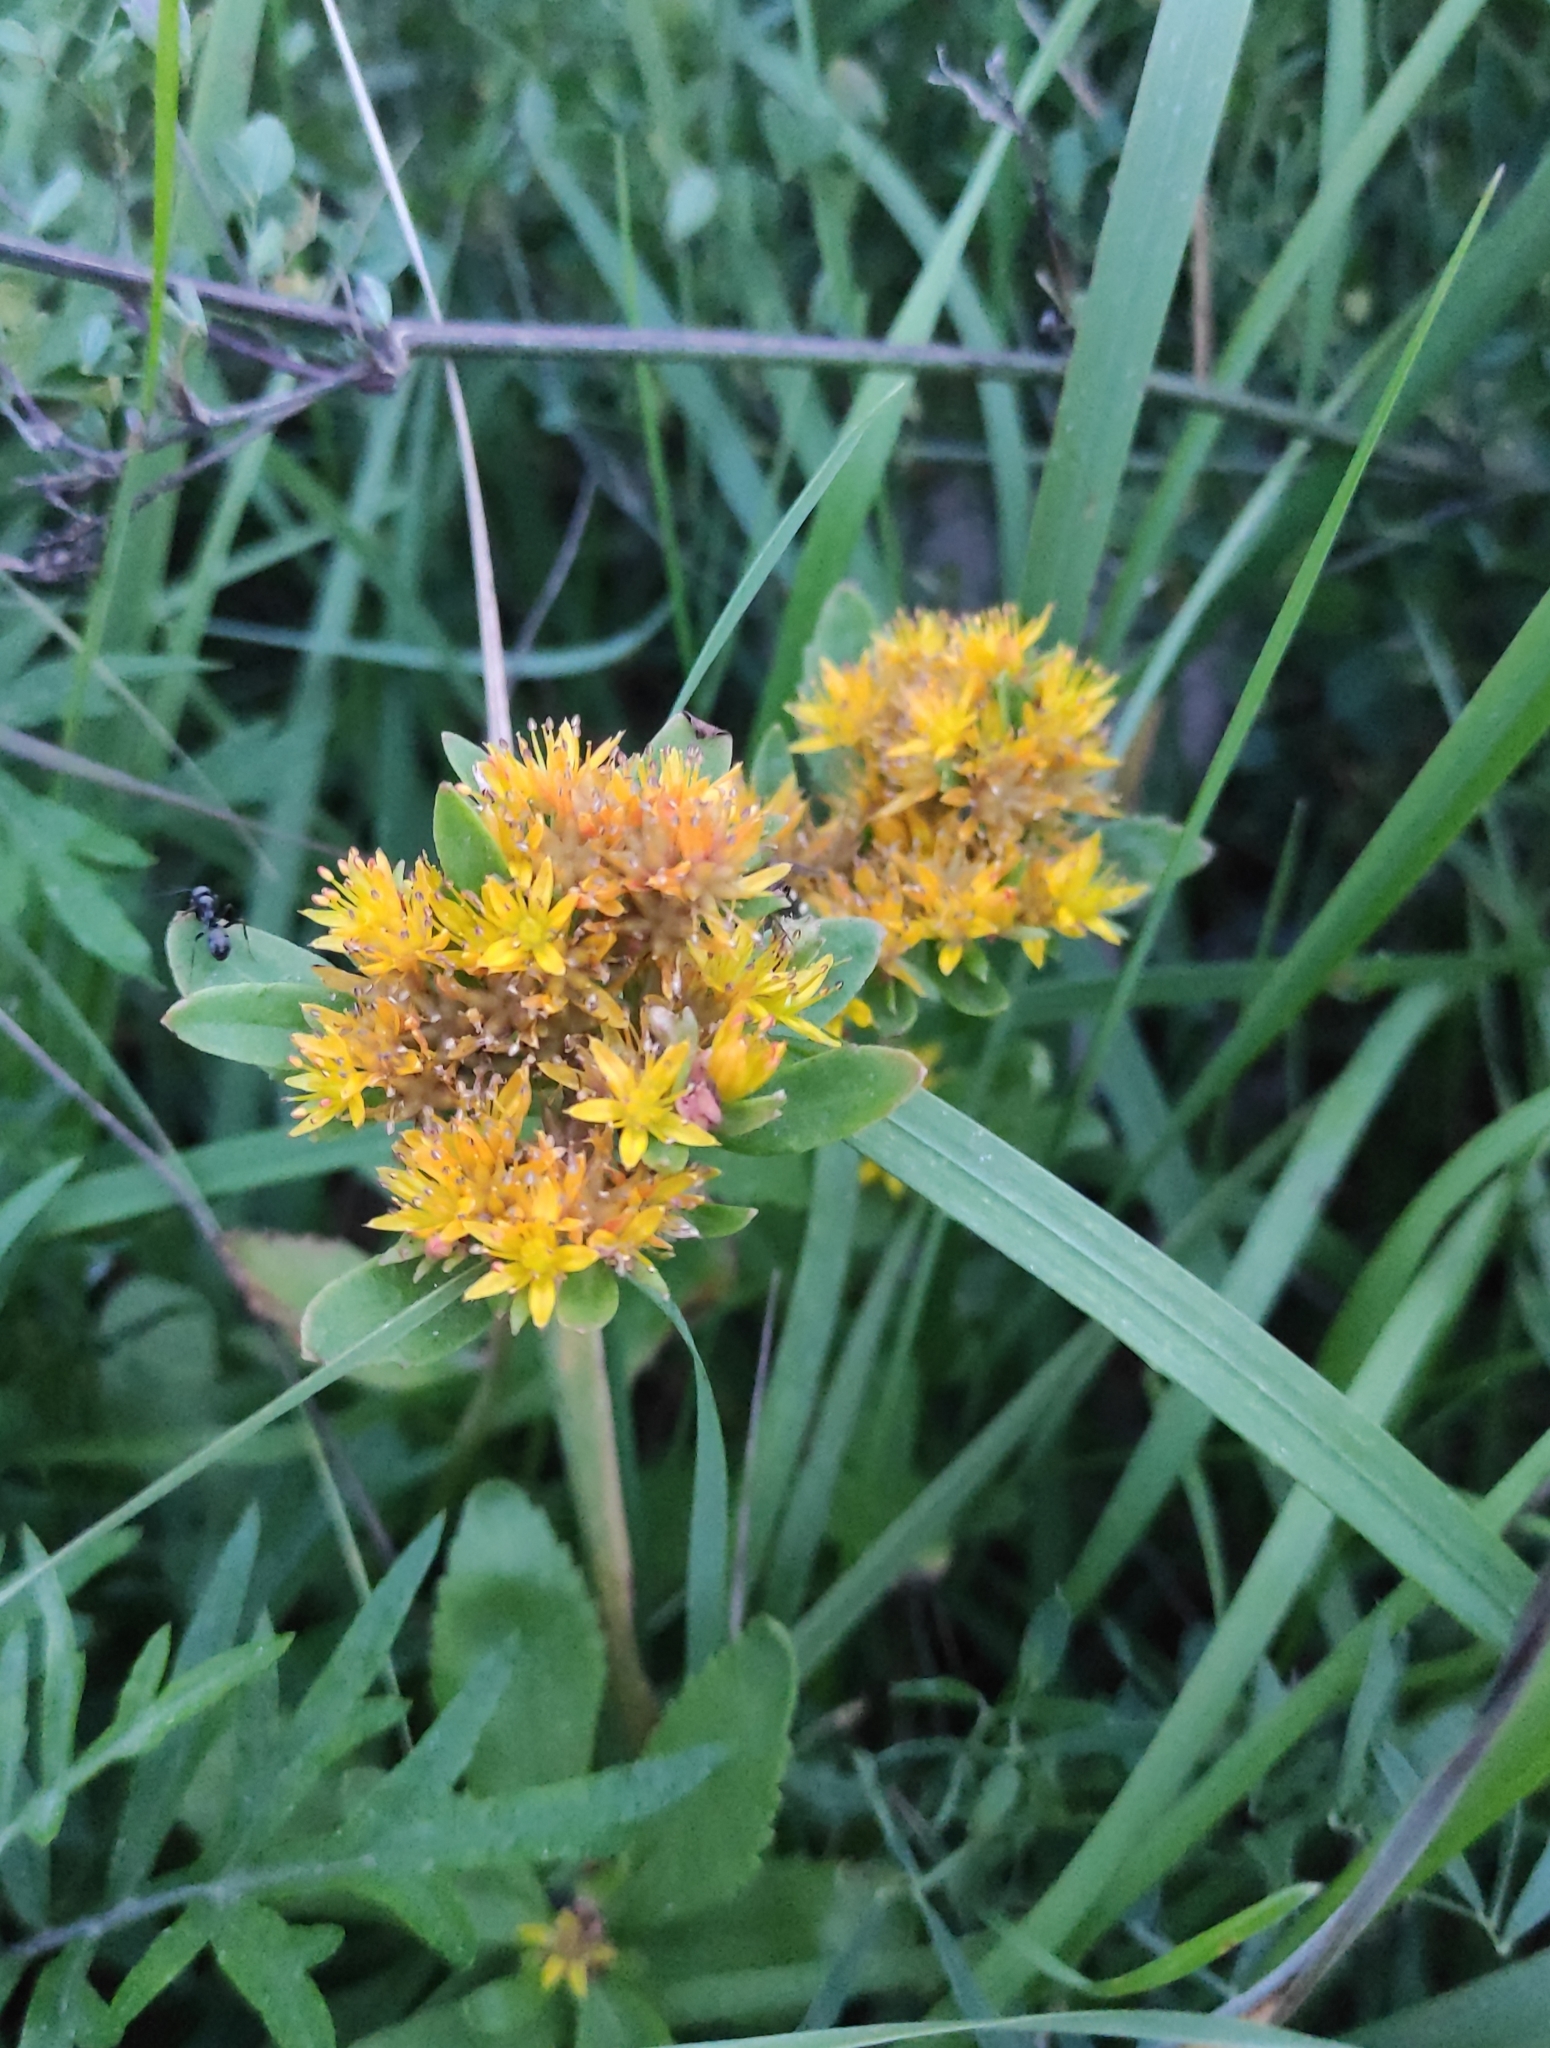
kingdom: Plantae
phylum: Tracheophyta
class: Magnoliopsida
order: Saxifragales
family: Crassulaceae
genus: Phedimus
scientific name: Phedimus aizoon
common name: Orpin aizoon
